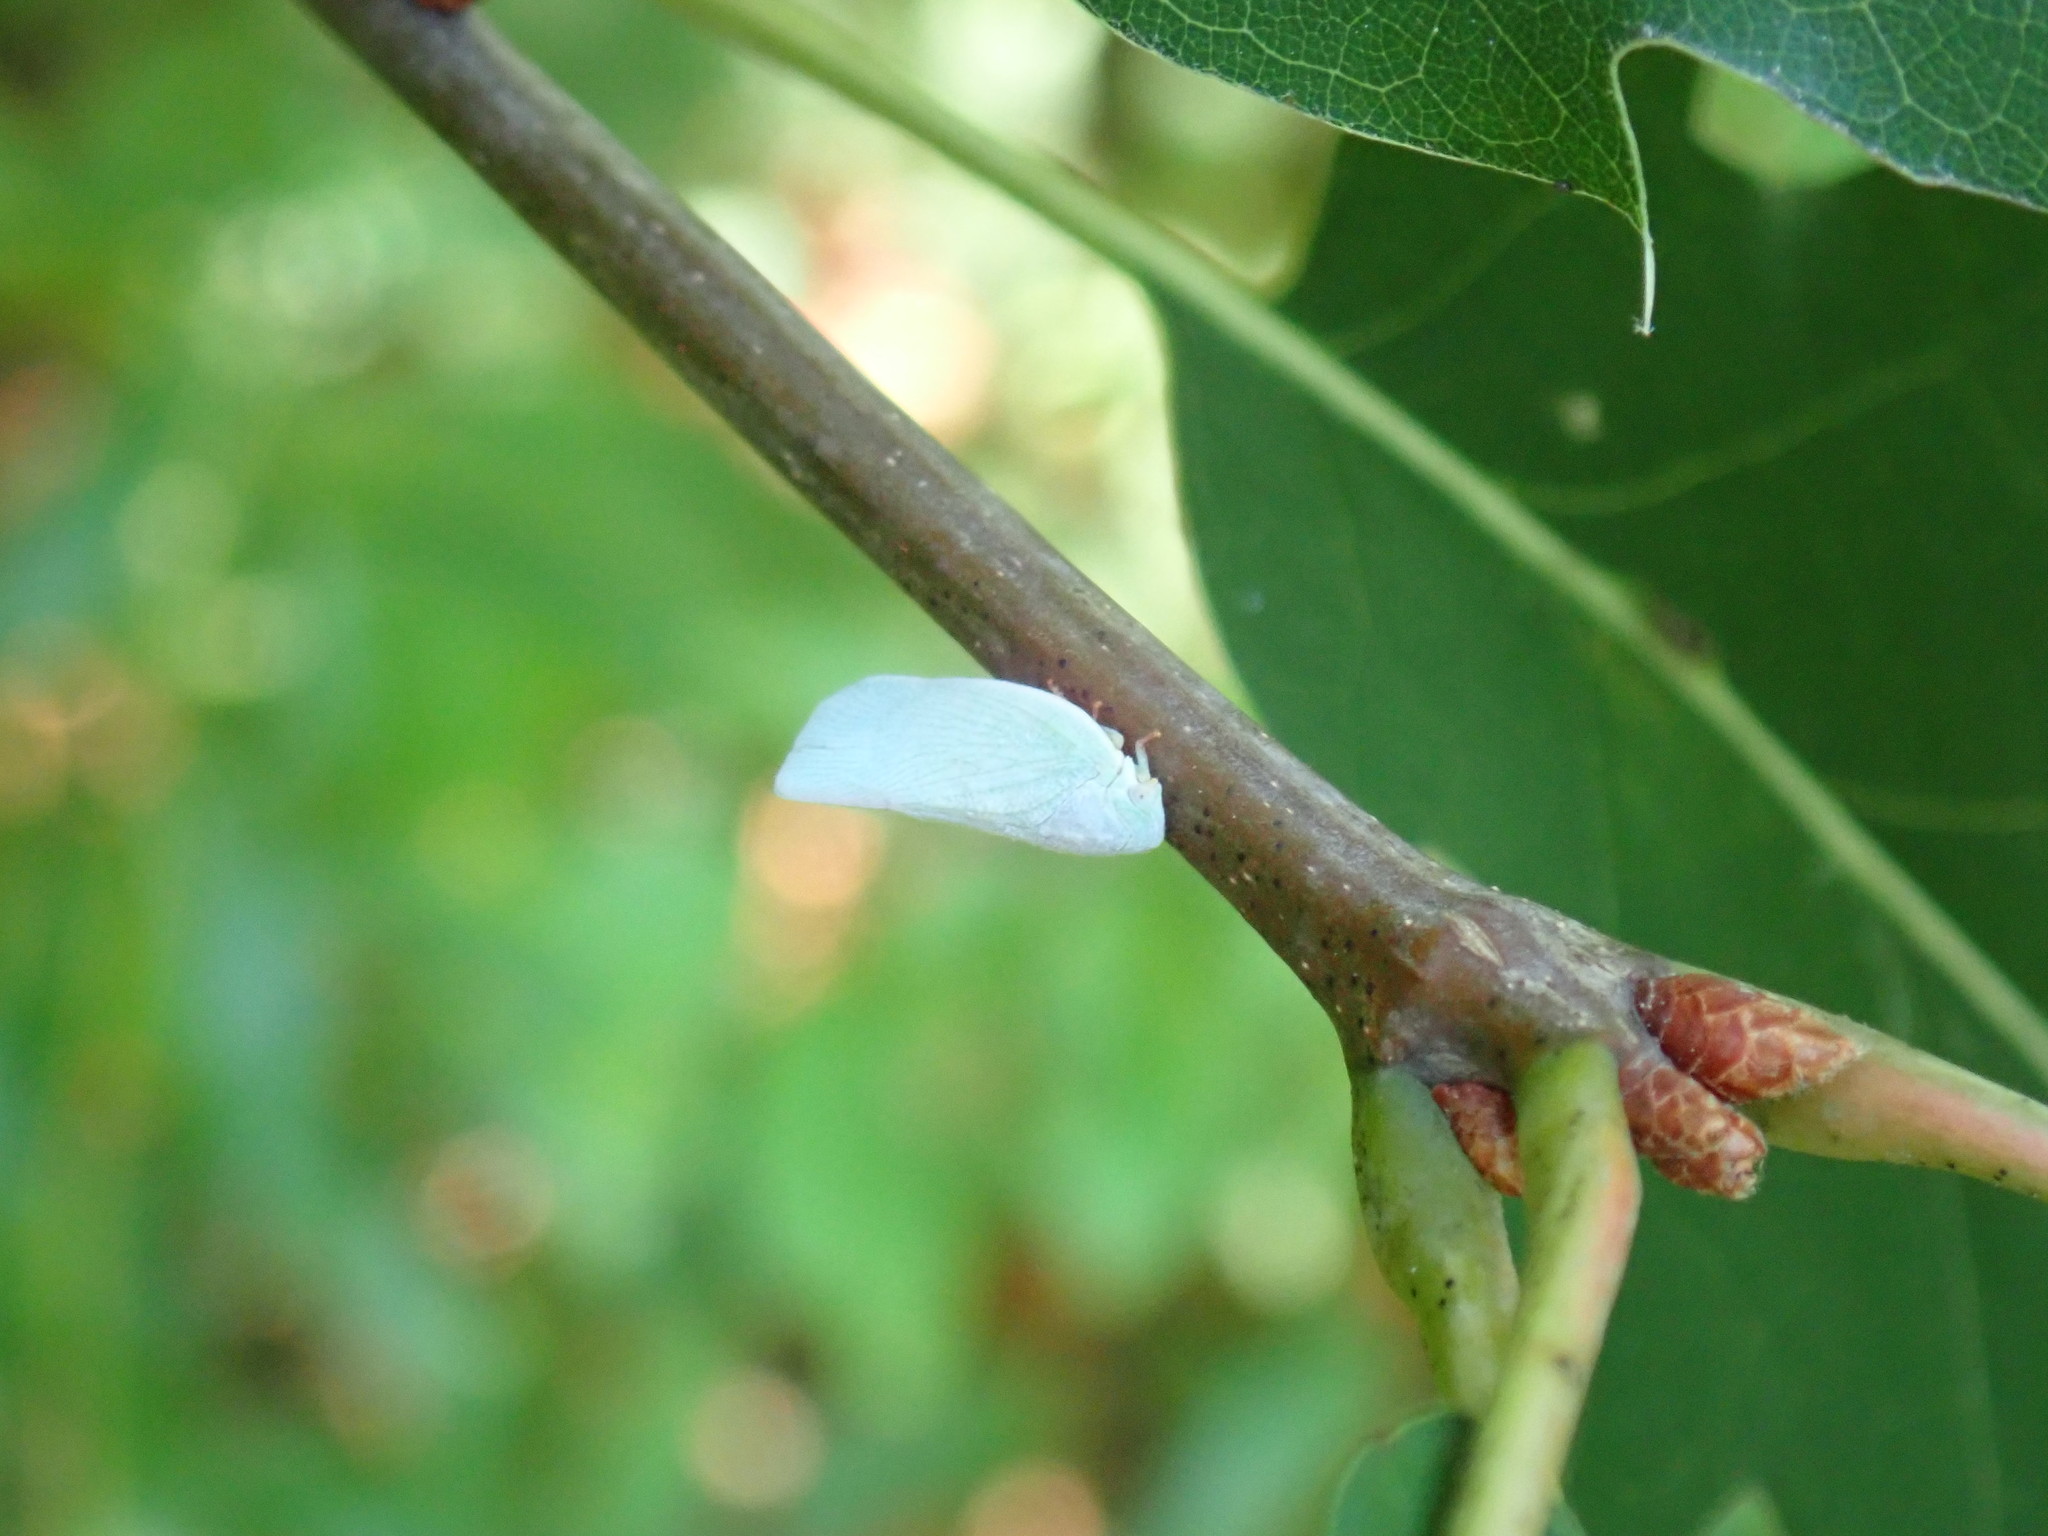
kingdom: Animalia
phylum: Arthropoda
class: Insecta
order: Hemiptera
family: Flatidae
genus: Flatormenis
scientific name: Flatormenis proxima
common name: Northern flatid planthopper
